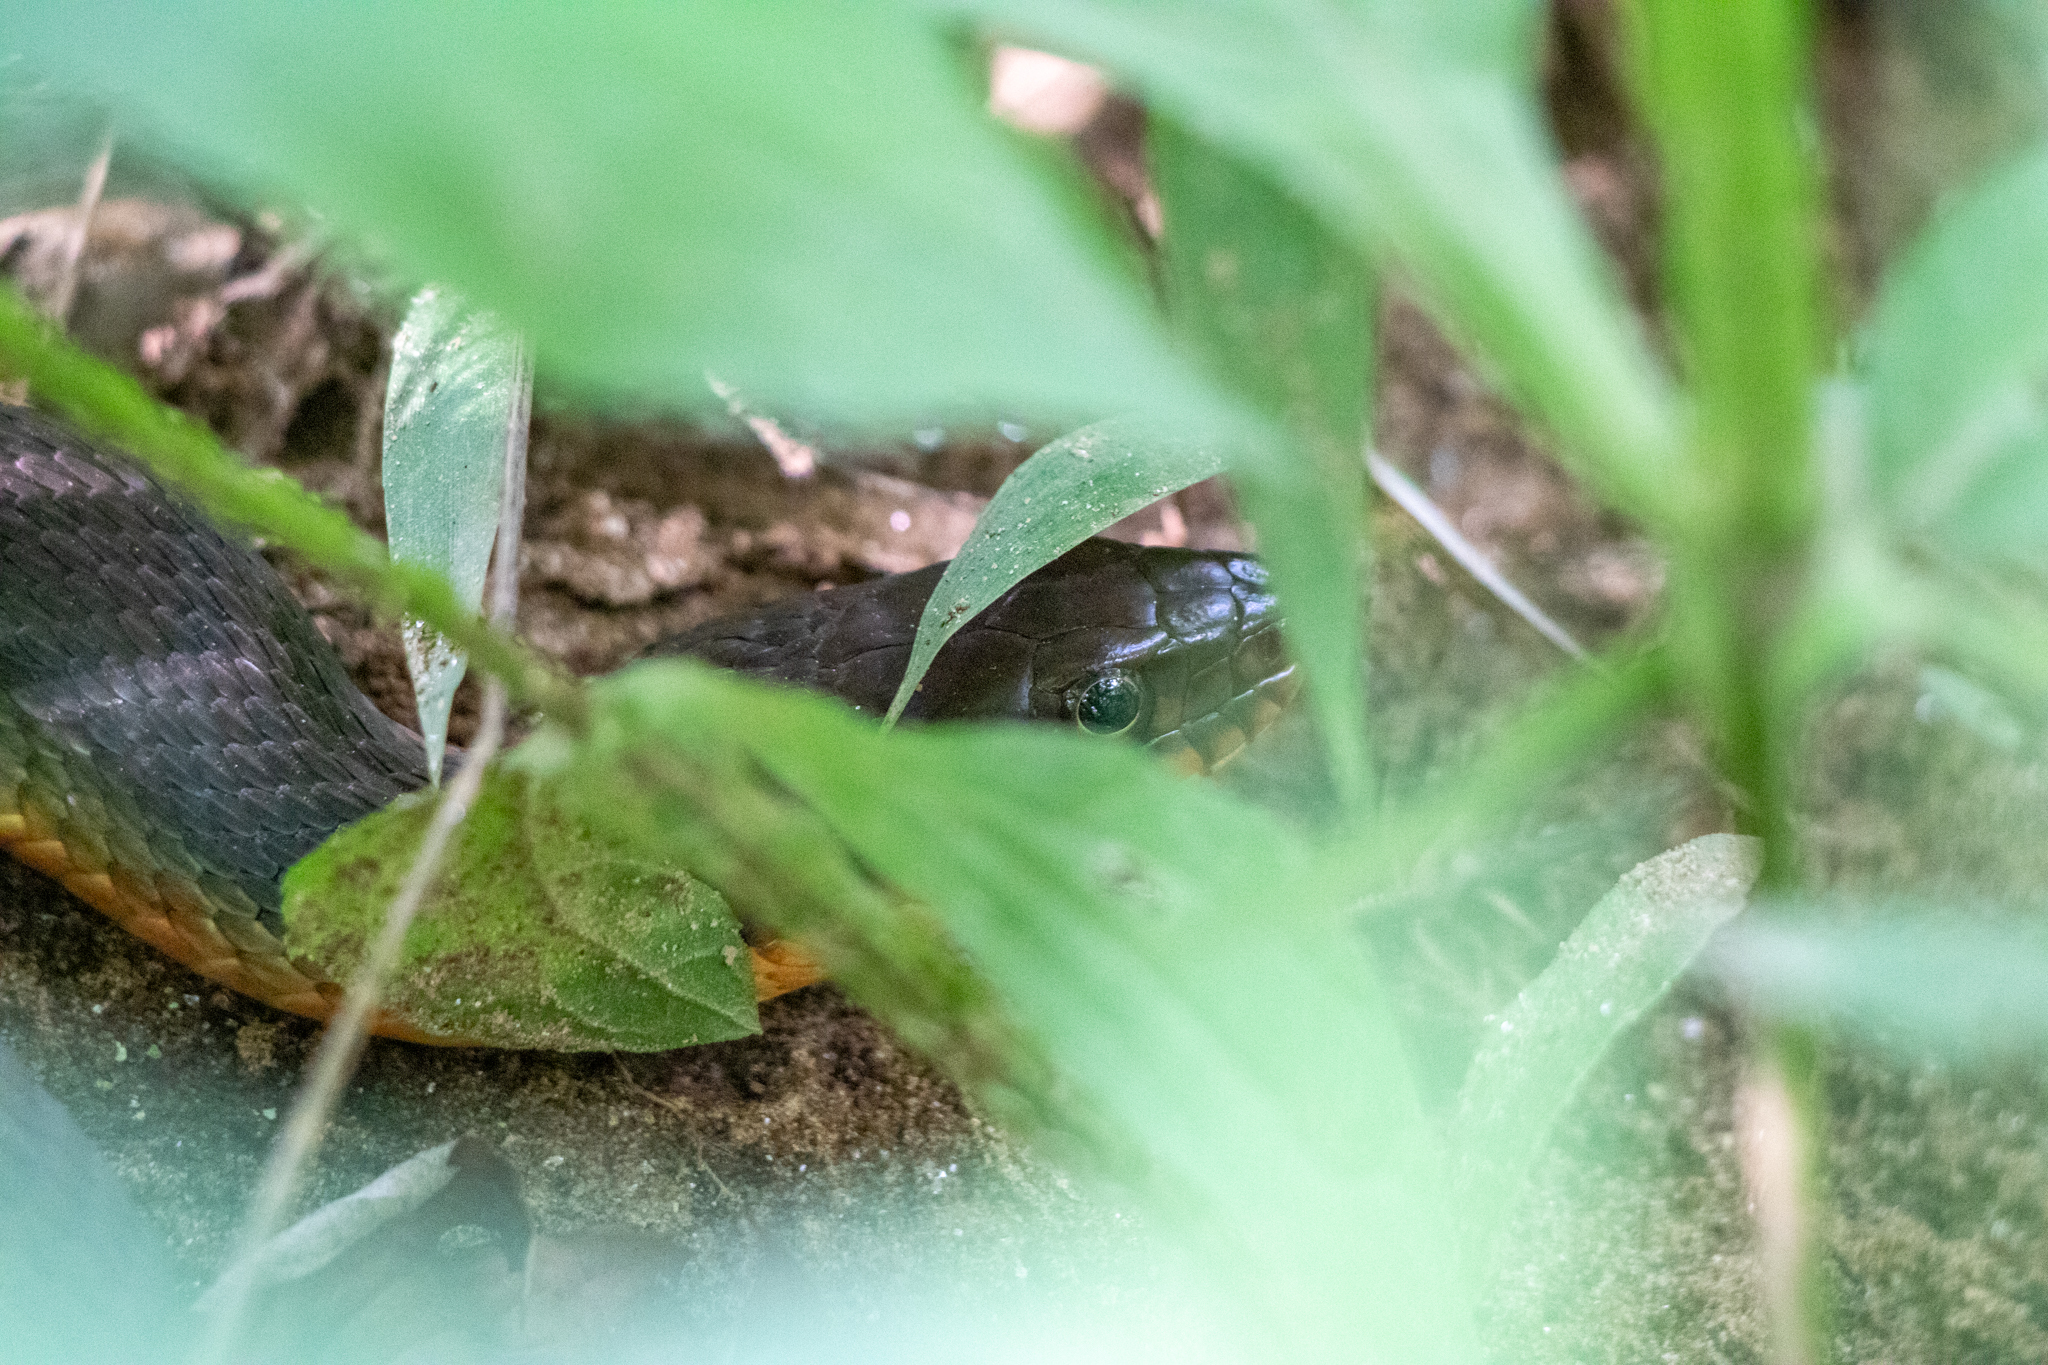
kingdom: Animalia
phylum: Chordata
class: Squamata
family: Colubridae
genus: Nerodia
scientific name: Nerodia erythrogaster
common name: Plainbelly water snake
